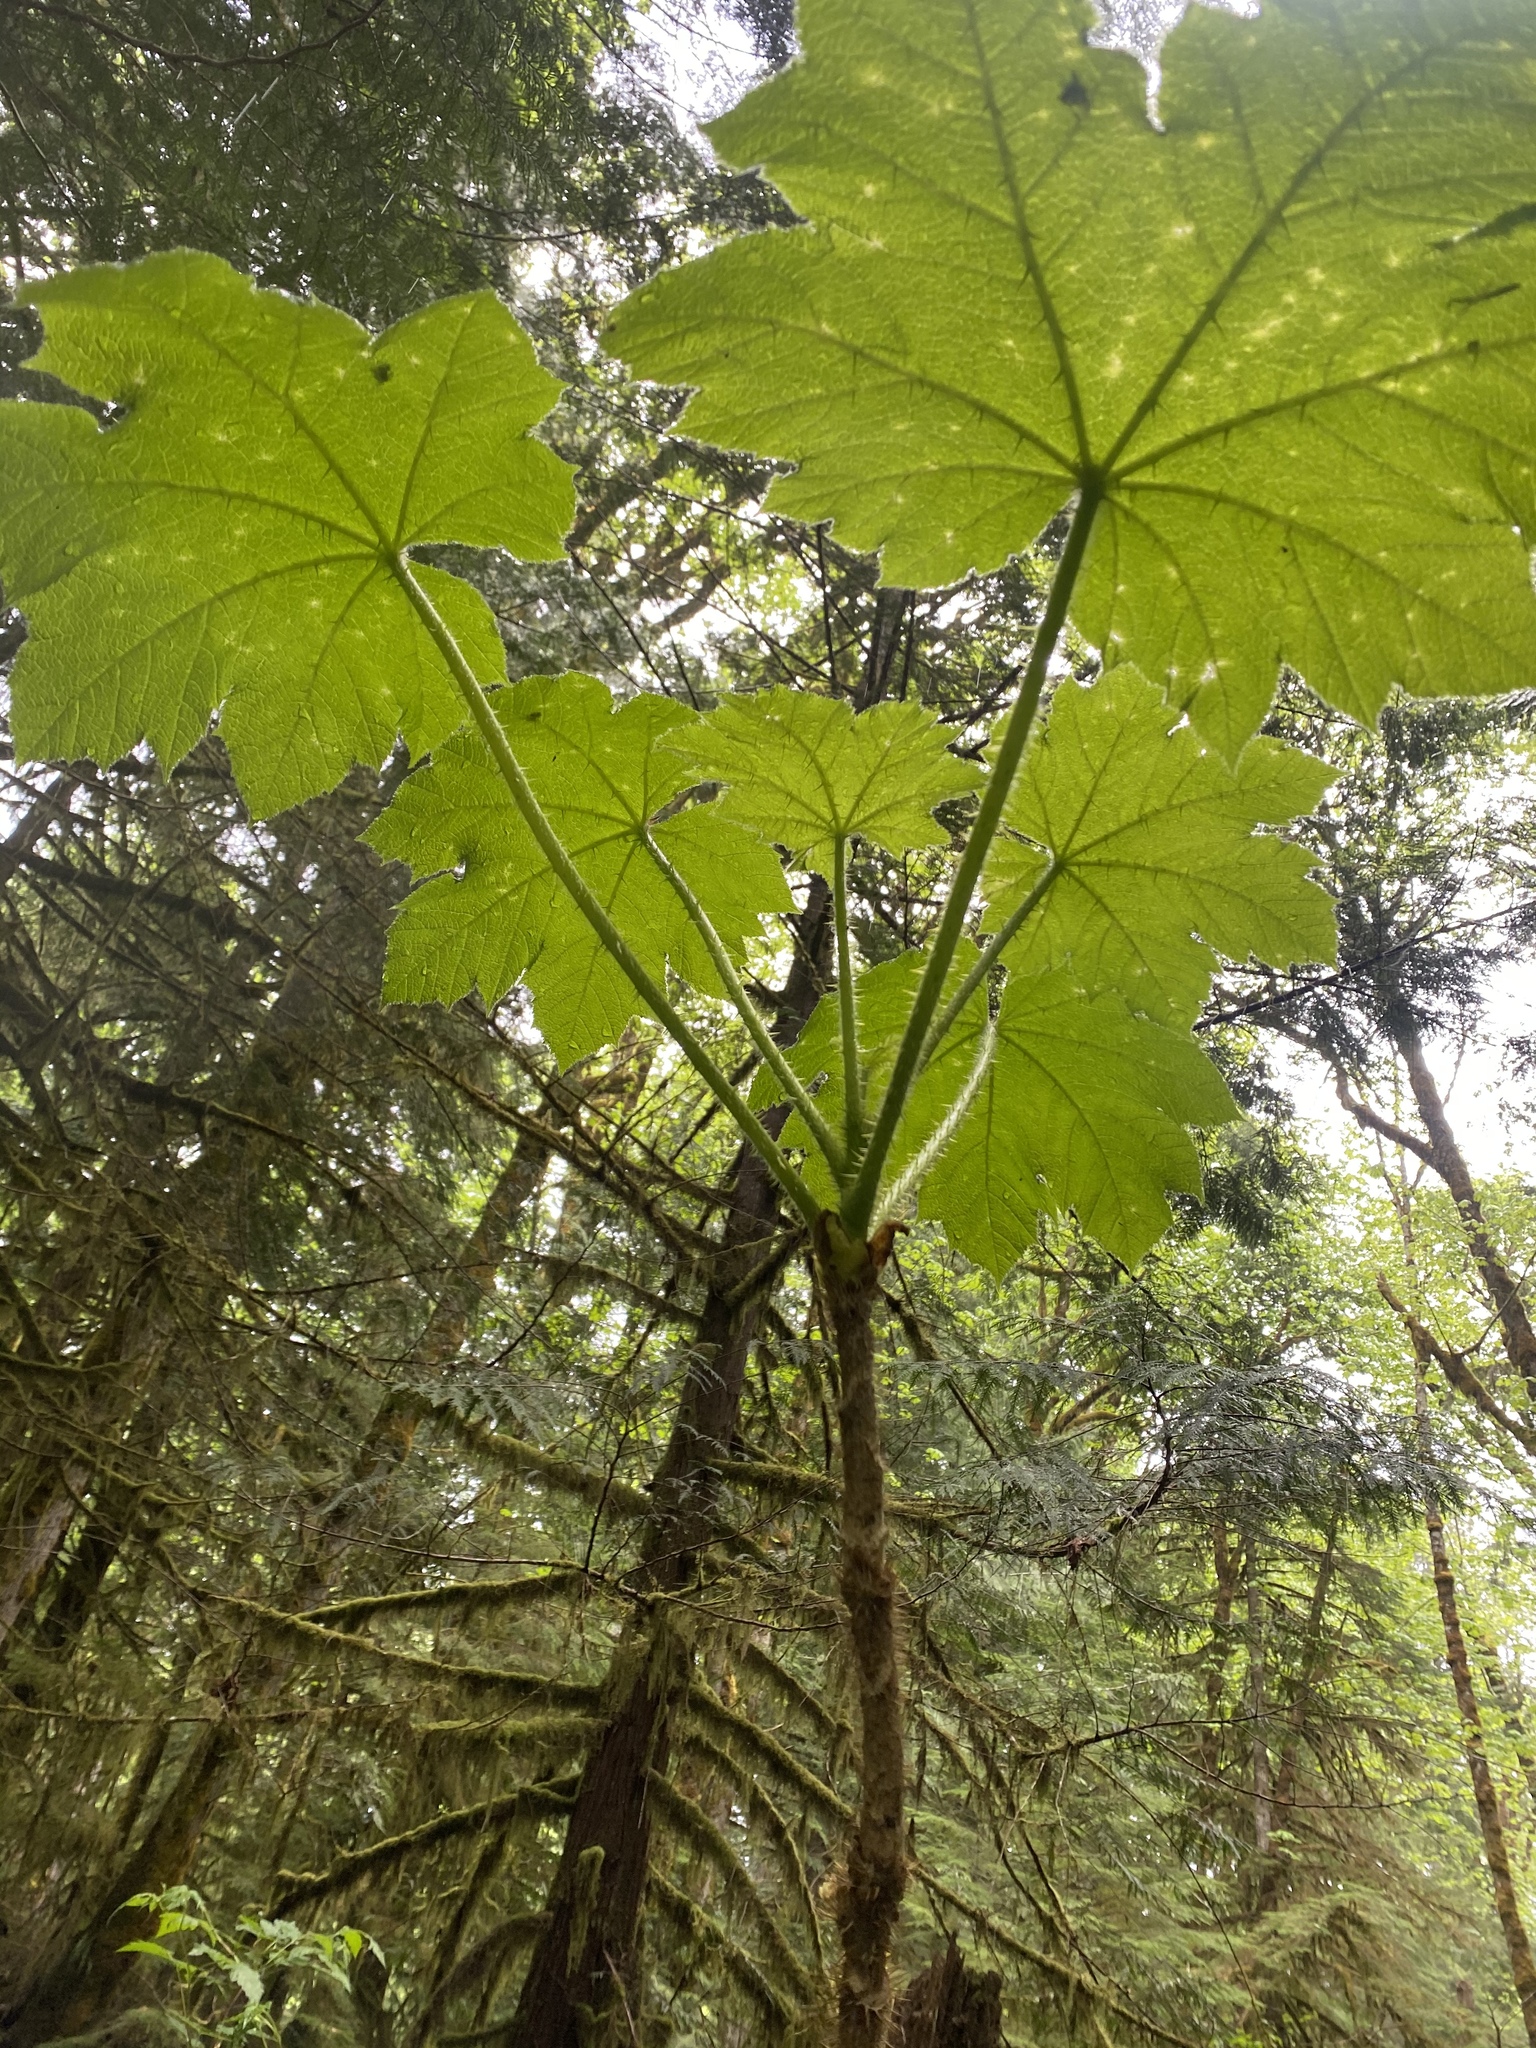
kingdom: Plantae
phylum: Tracheophyta
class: Magnoliopsida
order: Apiales
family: Araliaceae
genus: Oplopanax
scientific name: Oplopanax horridus
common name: Devil's walking-stick
